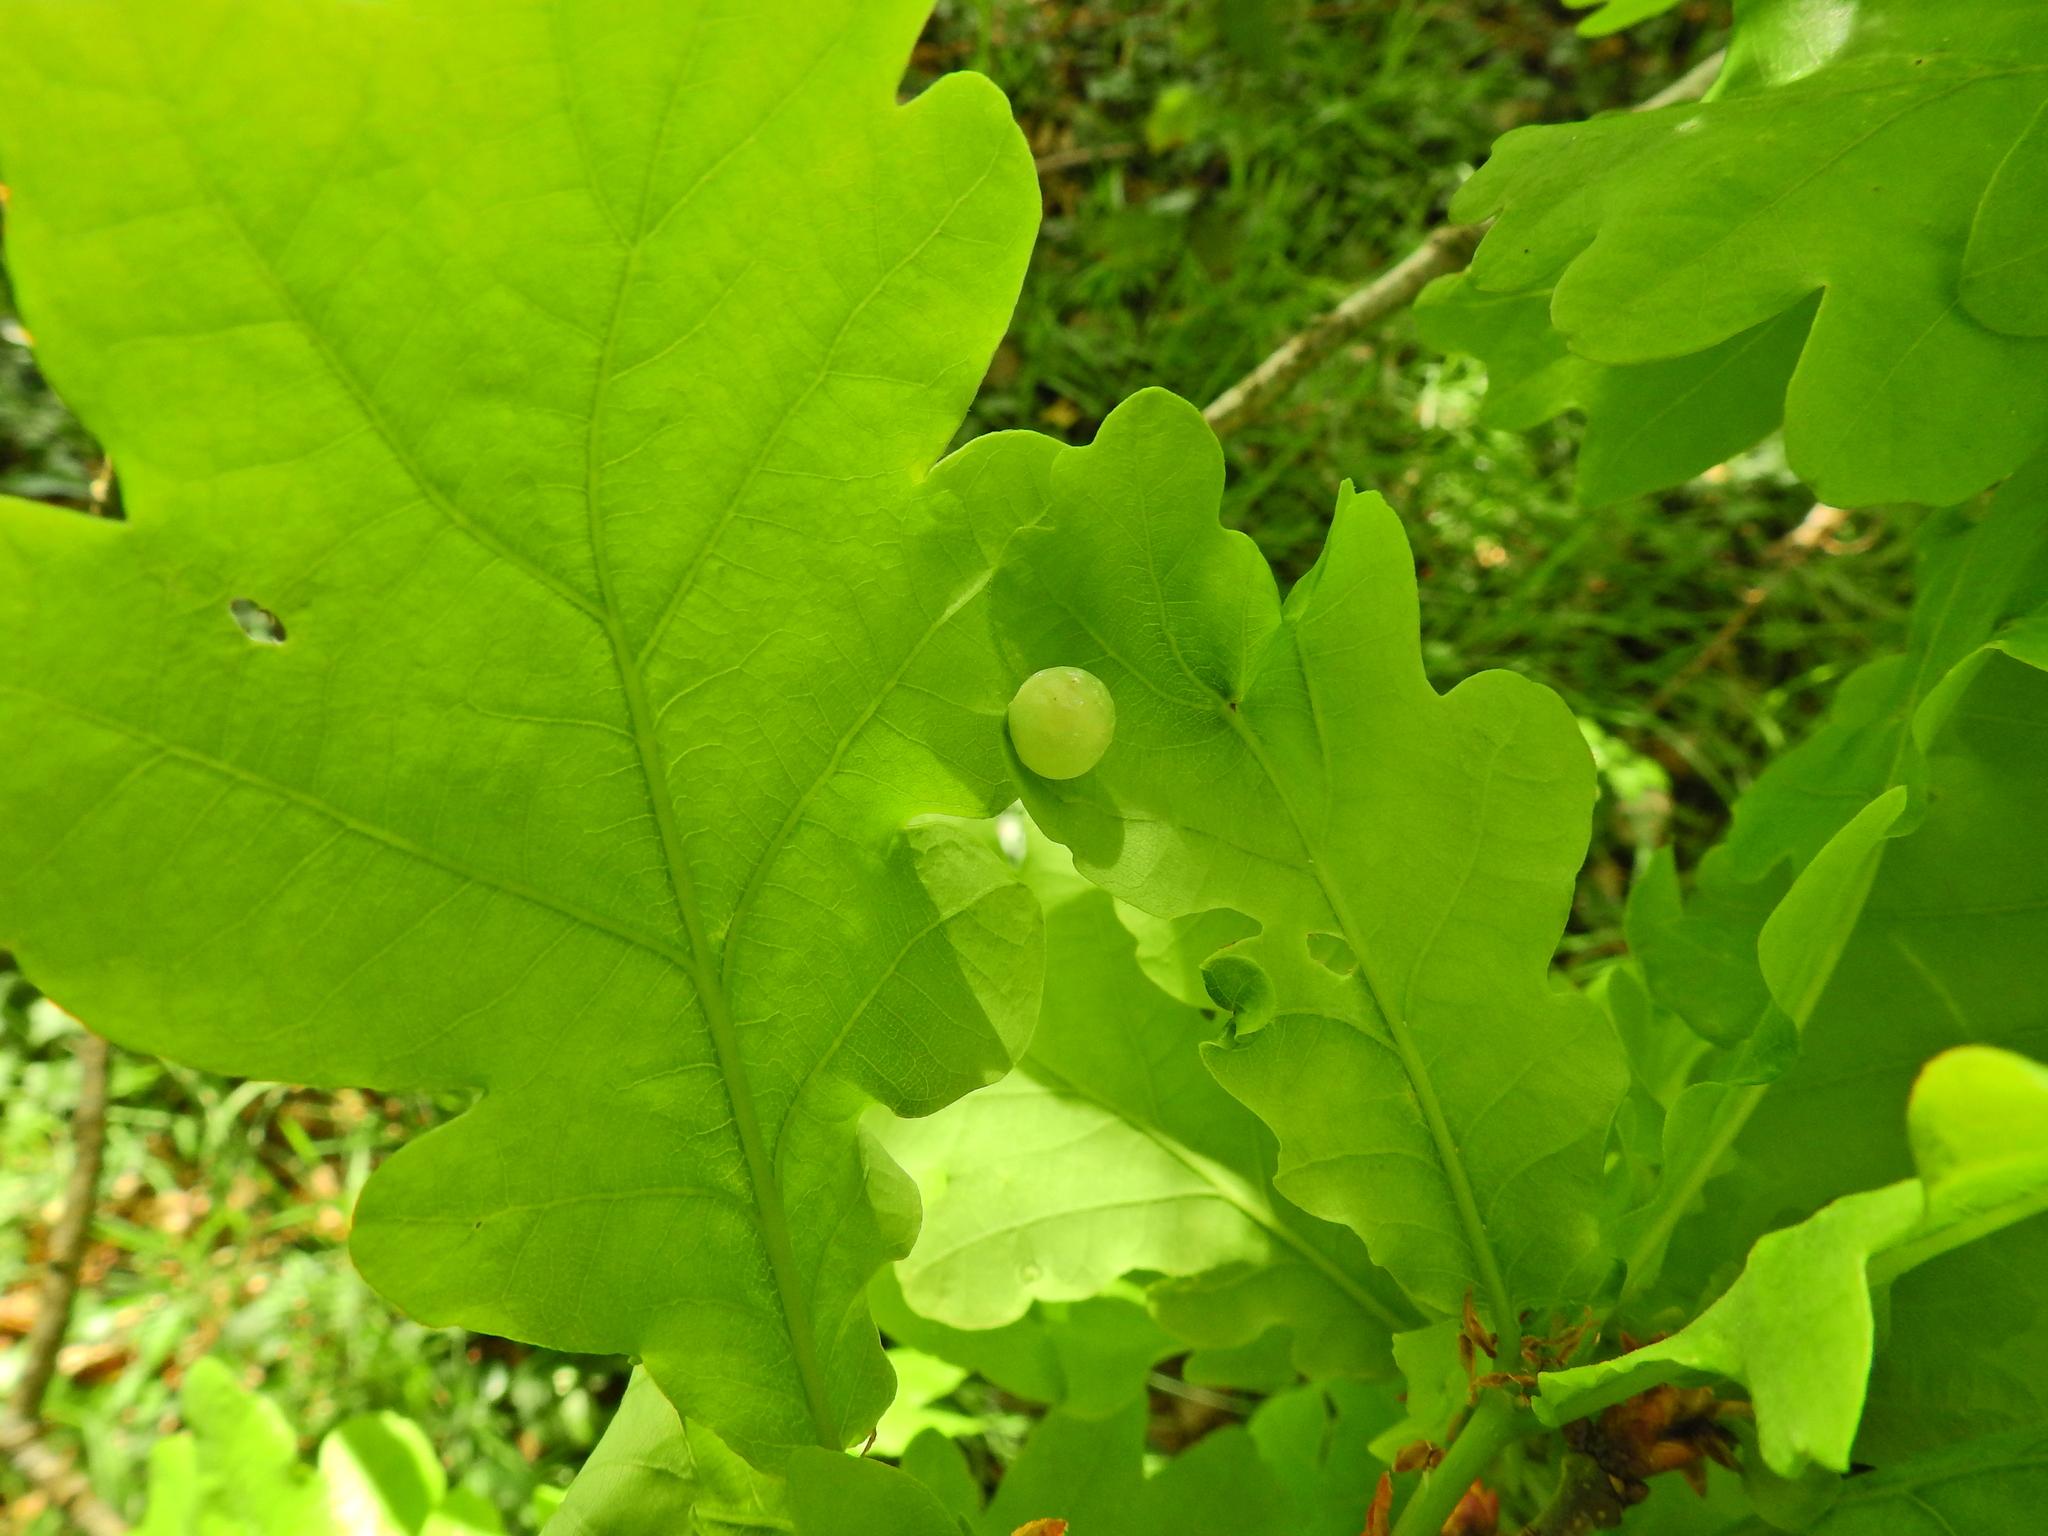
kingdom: Animalia
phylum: Arthropoda
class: Insecta
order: Hymenoptera
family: Cynipidae
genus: Neuroterus
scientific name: Neuroterus quercusbaccarum
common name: Common spangle gall
